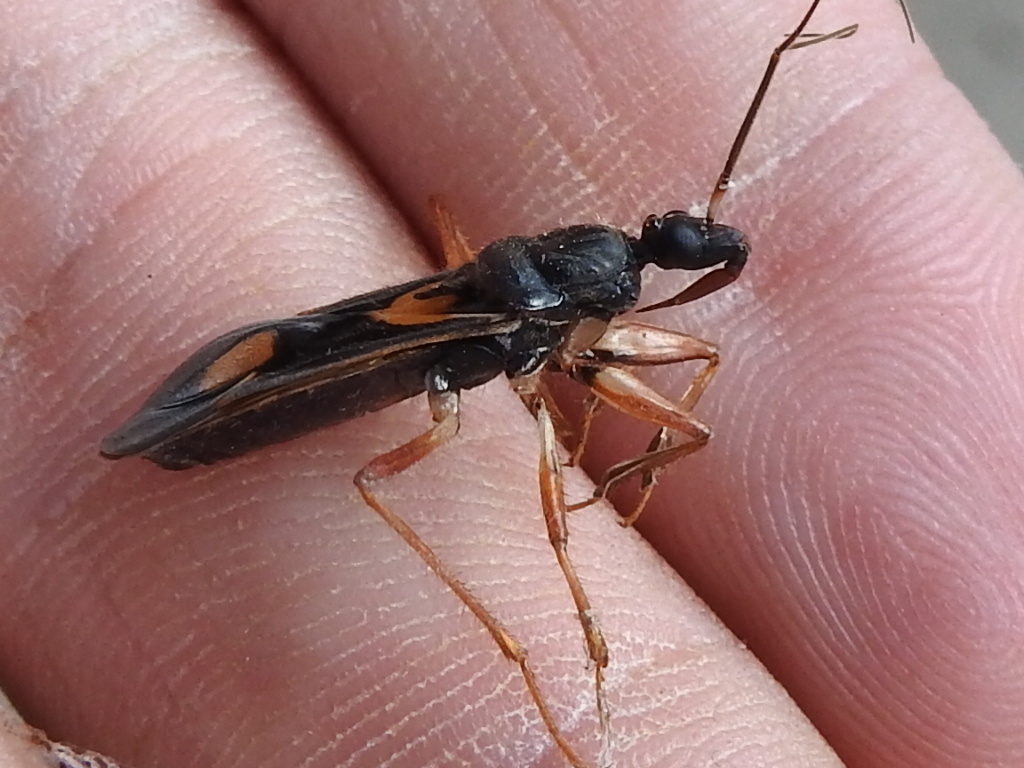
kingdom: Animalia
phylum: Arthropoda
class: Insecta
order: Hemiptera
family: Reduviidae
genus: Rasahus
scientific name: Rasahus hamatus
